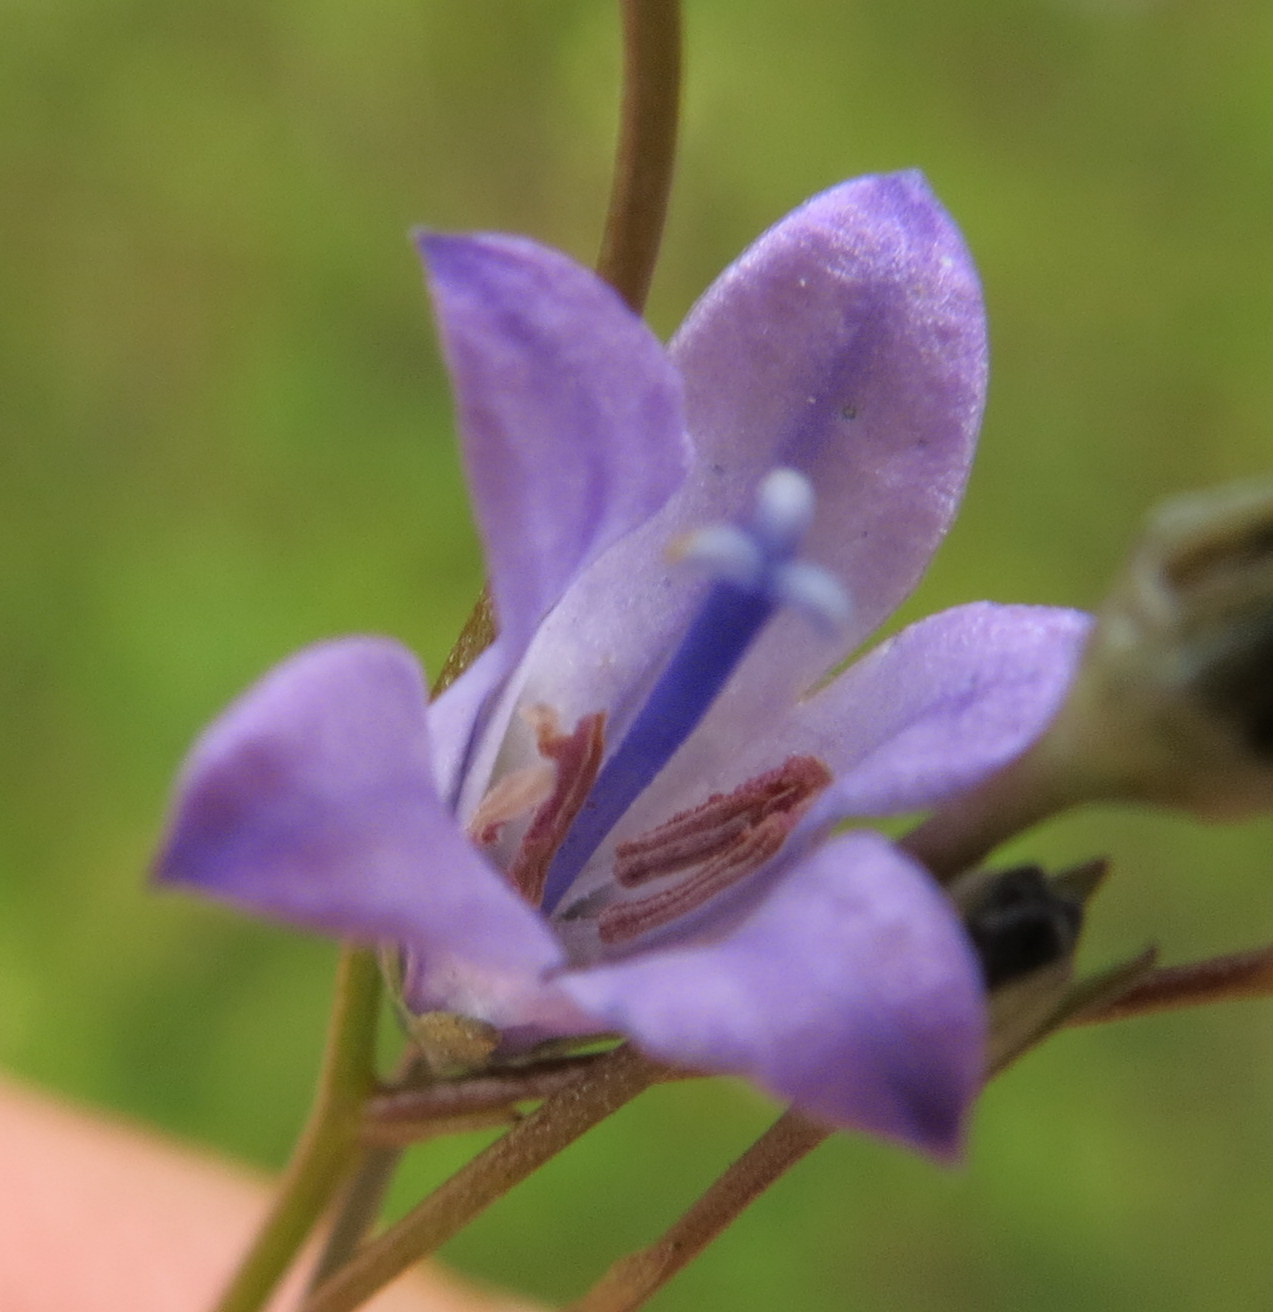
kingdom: Plantae
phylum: Tracheophyta
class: Magnoliopsida
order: Asterales
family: Campanulaceae
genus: Wahlenbergia
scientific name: Wahlenbergia krebsii
